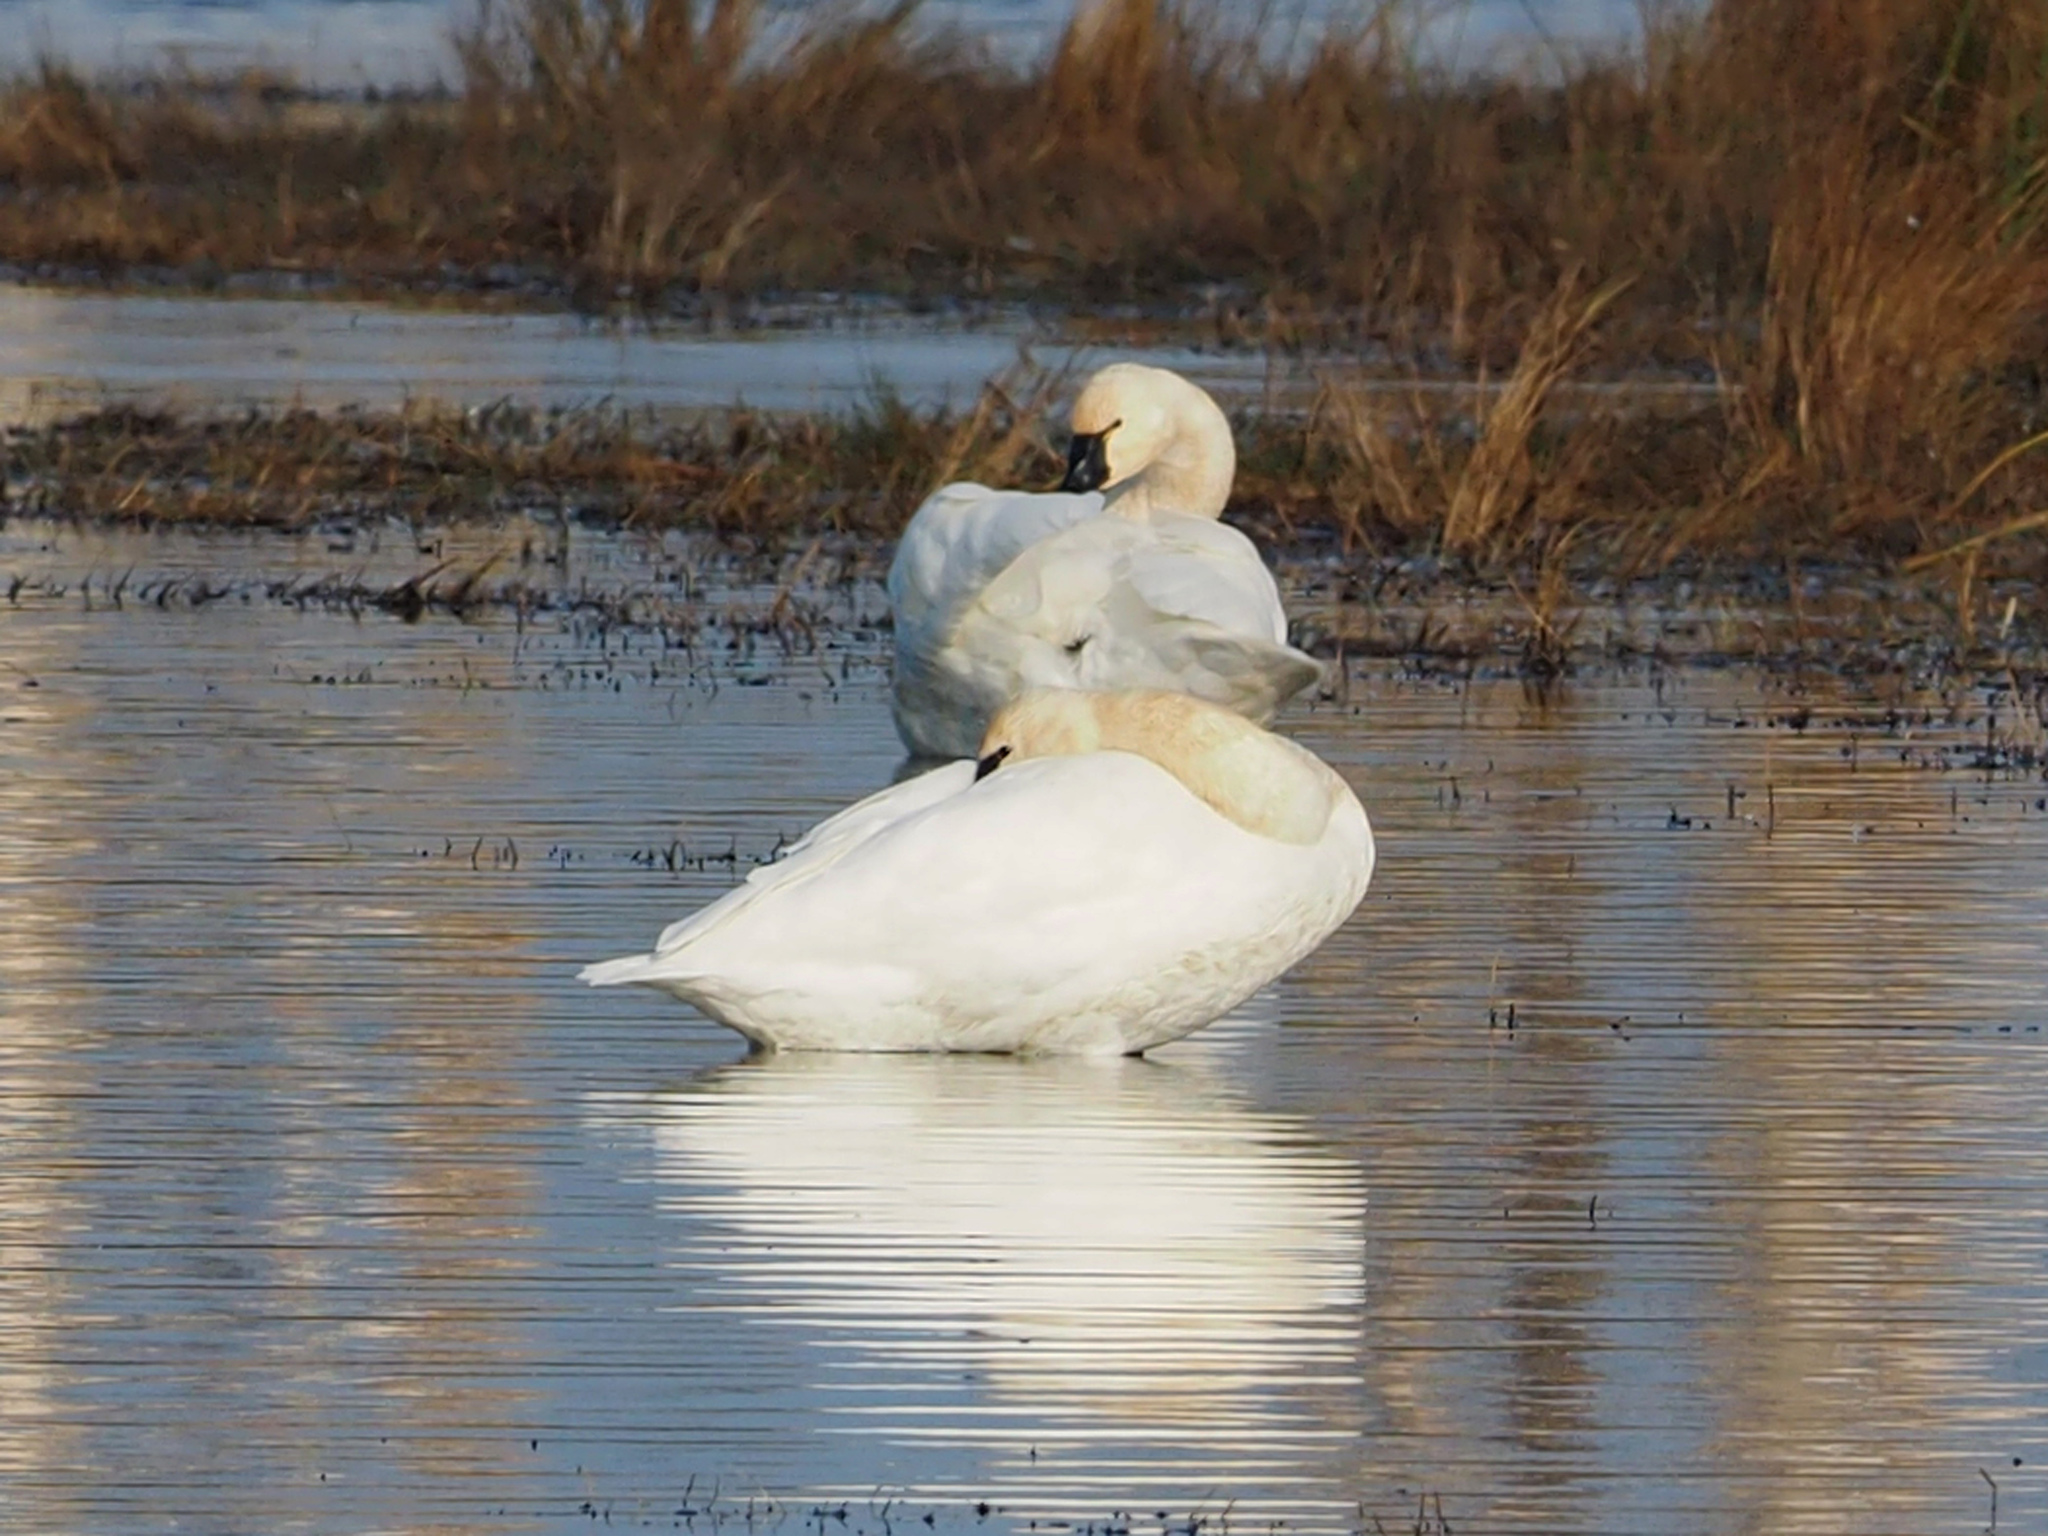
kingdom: Animalia
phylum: Chordata
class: Aves
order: Anseriformes
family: Anatidae
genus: Cygnus
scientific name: Cygnus columbianus
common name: Tundra swan
